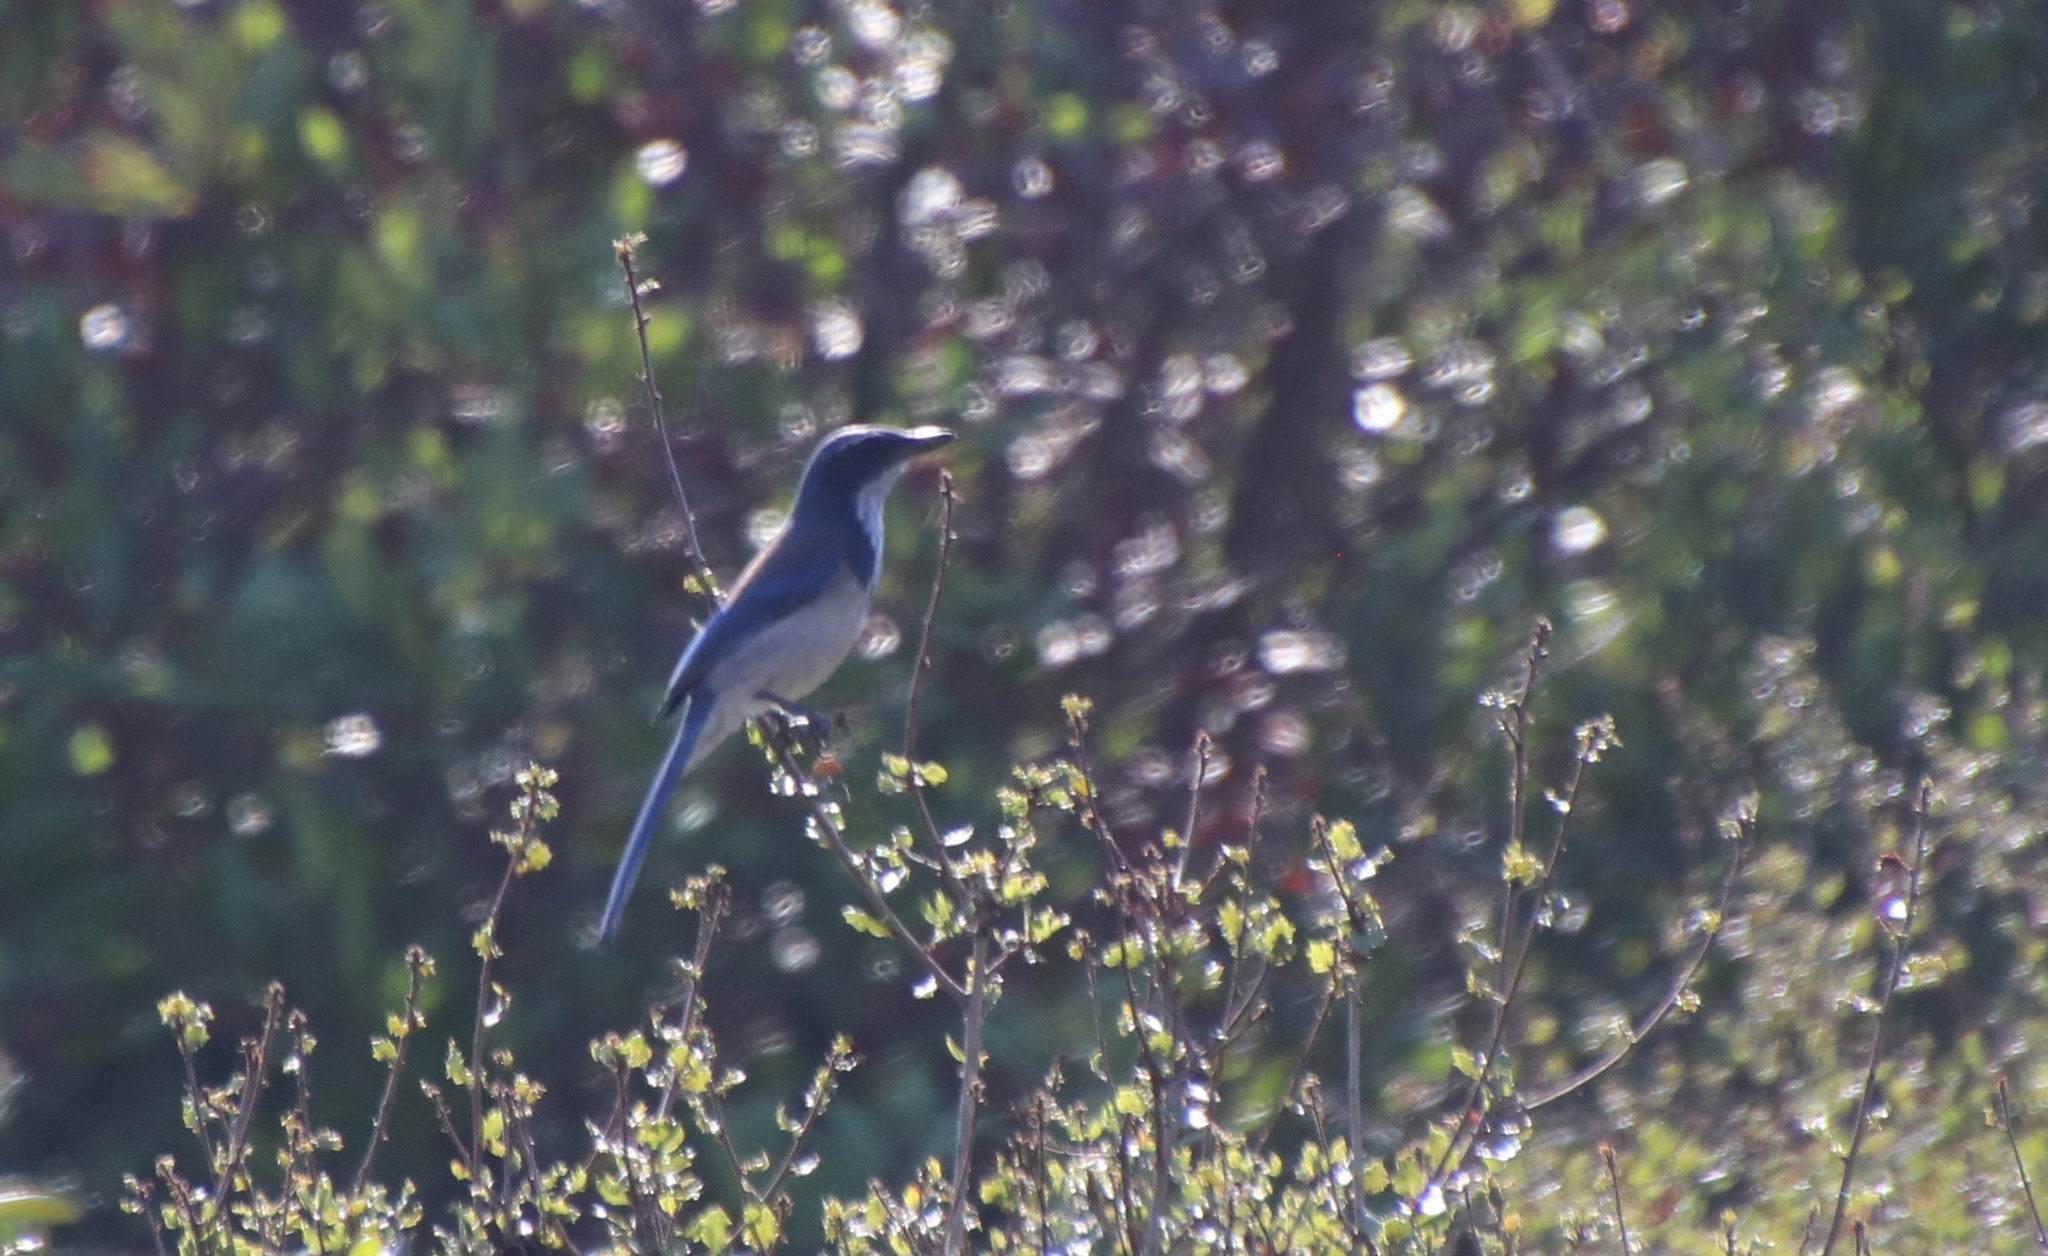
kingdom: Animalia
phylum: Chordata
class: Aves
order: Passeriformes
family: Corvidae
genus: Aphelocoma
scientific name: Aphelocoma californica
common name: California scrub-jay
